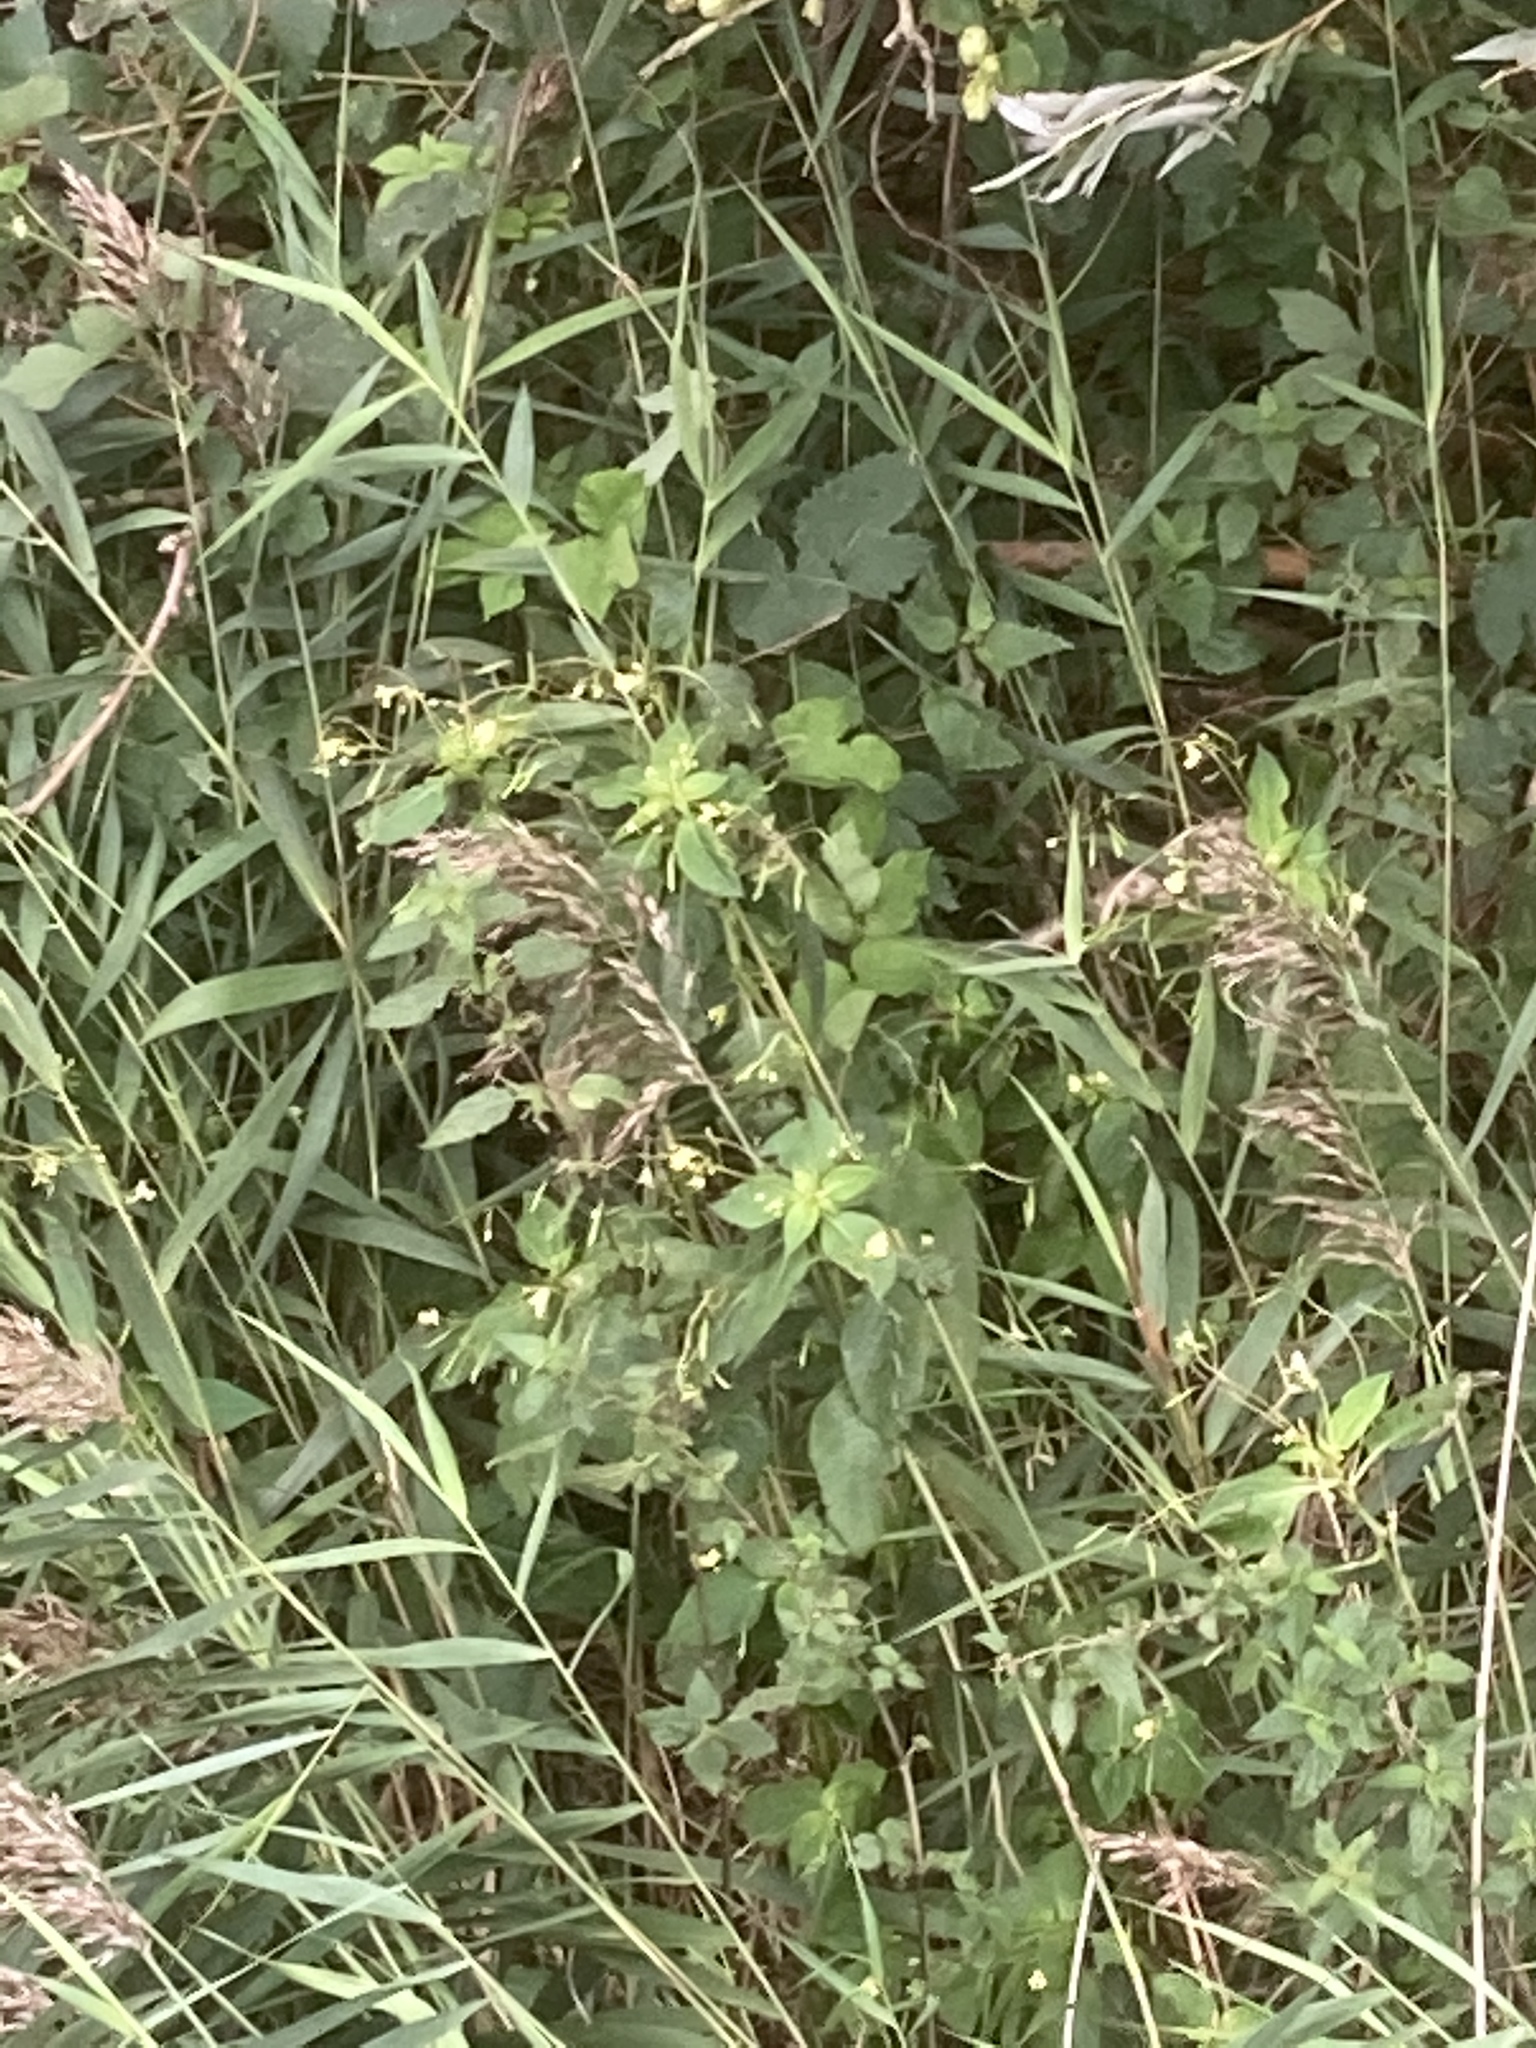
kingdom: Plantae
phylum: Tracheophyta
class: Magnoliopsida
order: Ericales
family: Balsaminaceae
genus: Impatiens
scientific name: Impatiens parviflora
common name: Small balsam
